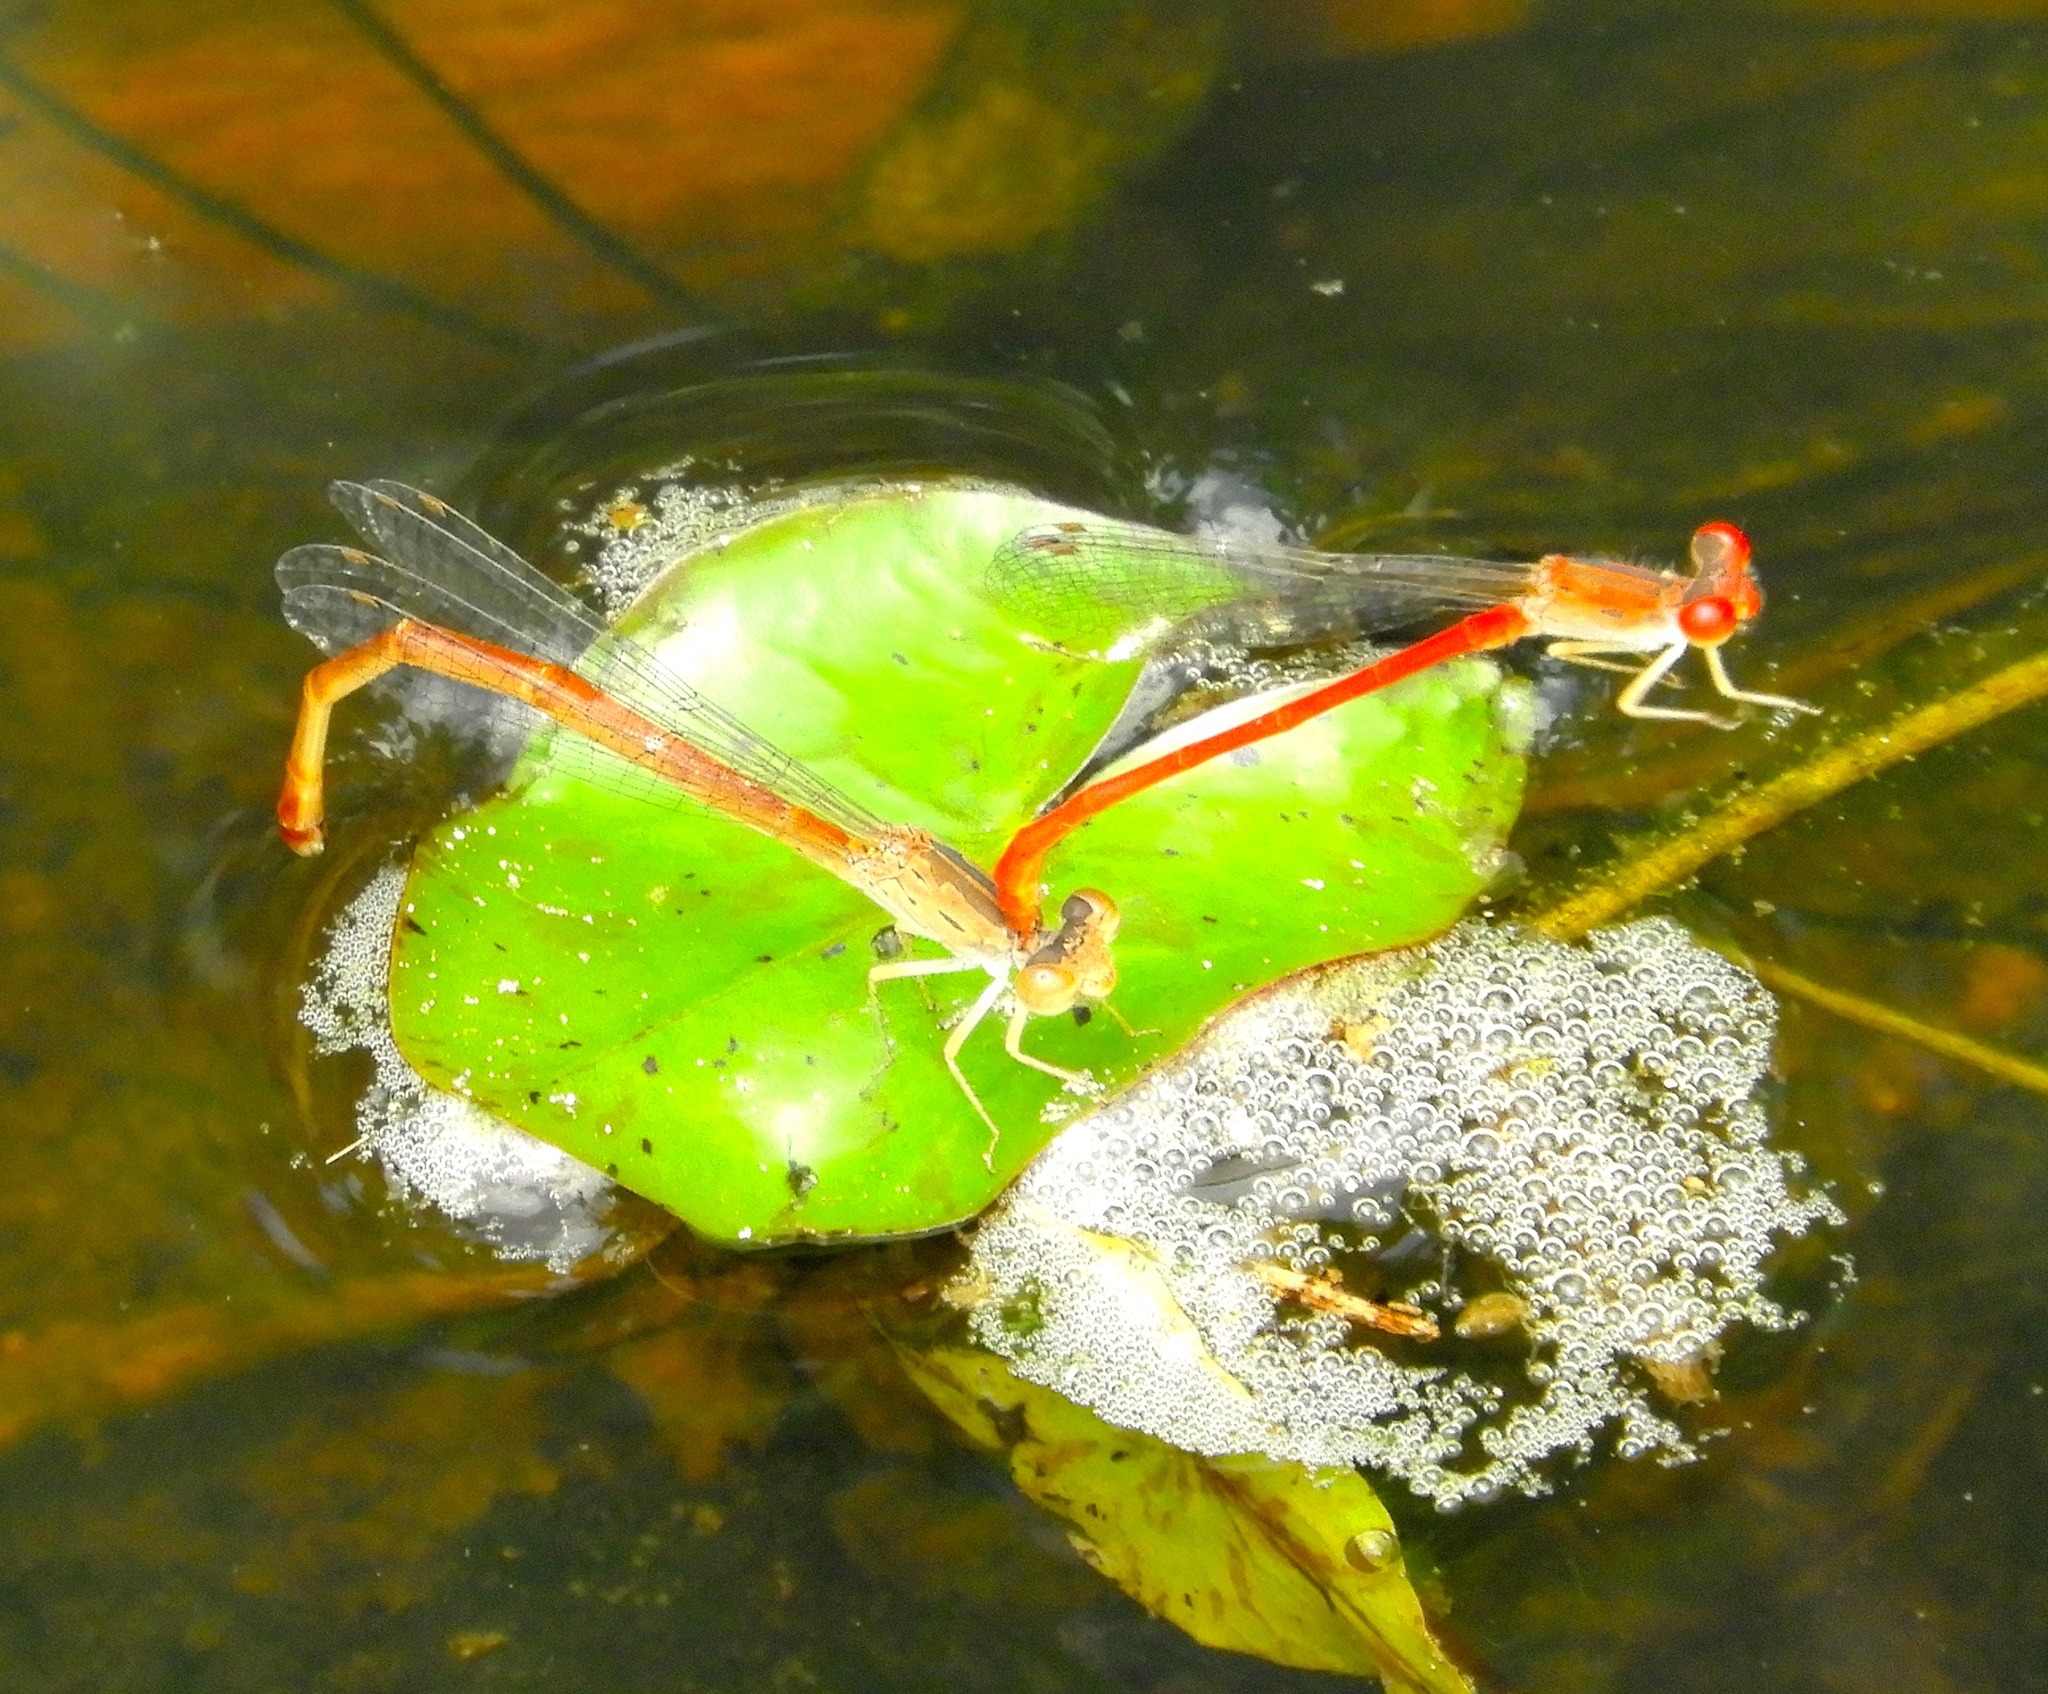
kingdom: Animalia
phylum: Arthropoda
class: Insecta
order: Odonata
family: Coenagrionidae
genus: Telebasis
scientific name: Telebasis salva
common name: Desert firetail
